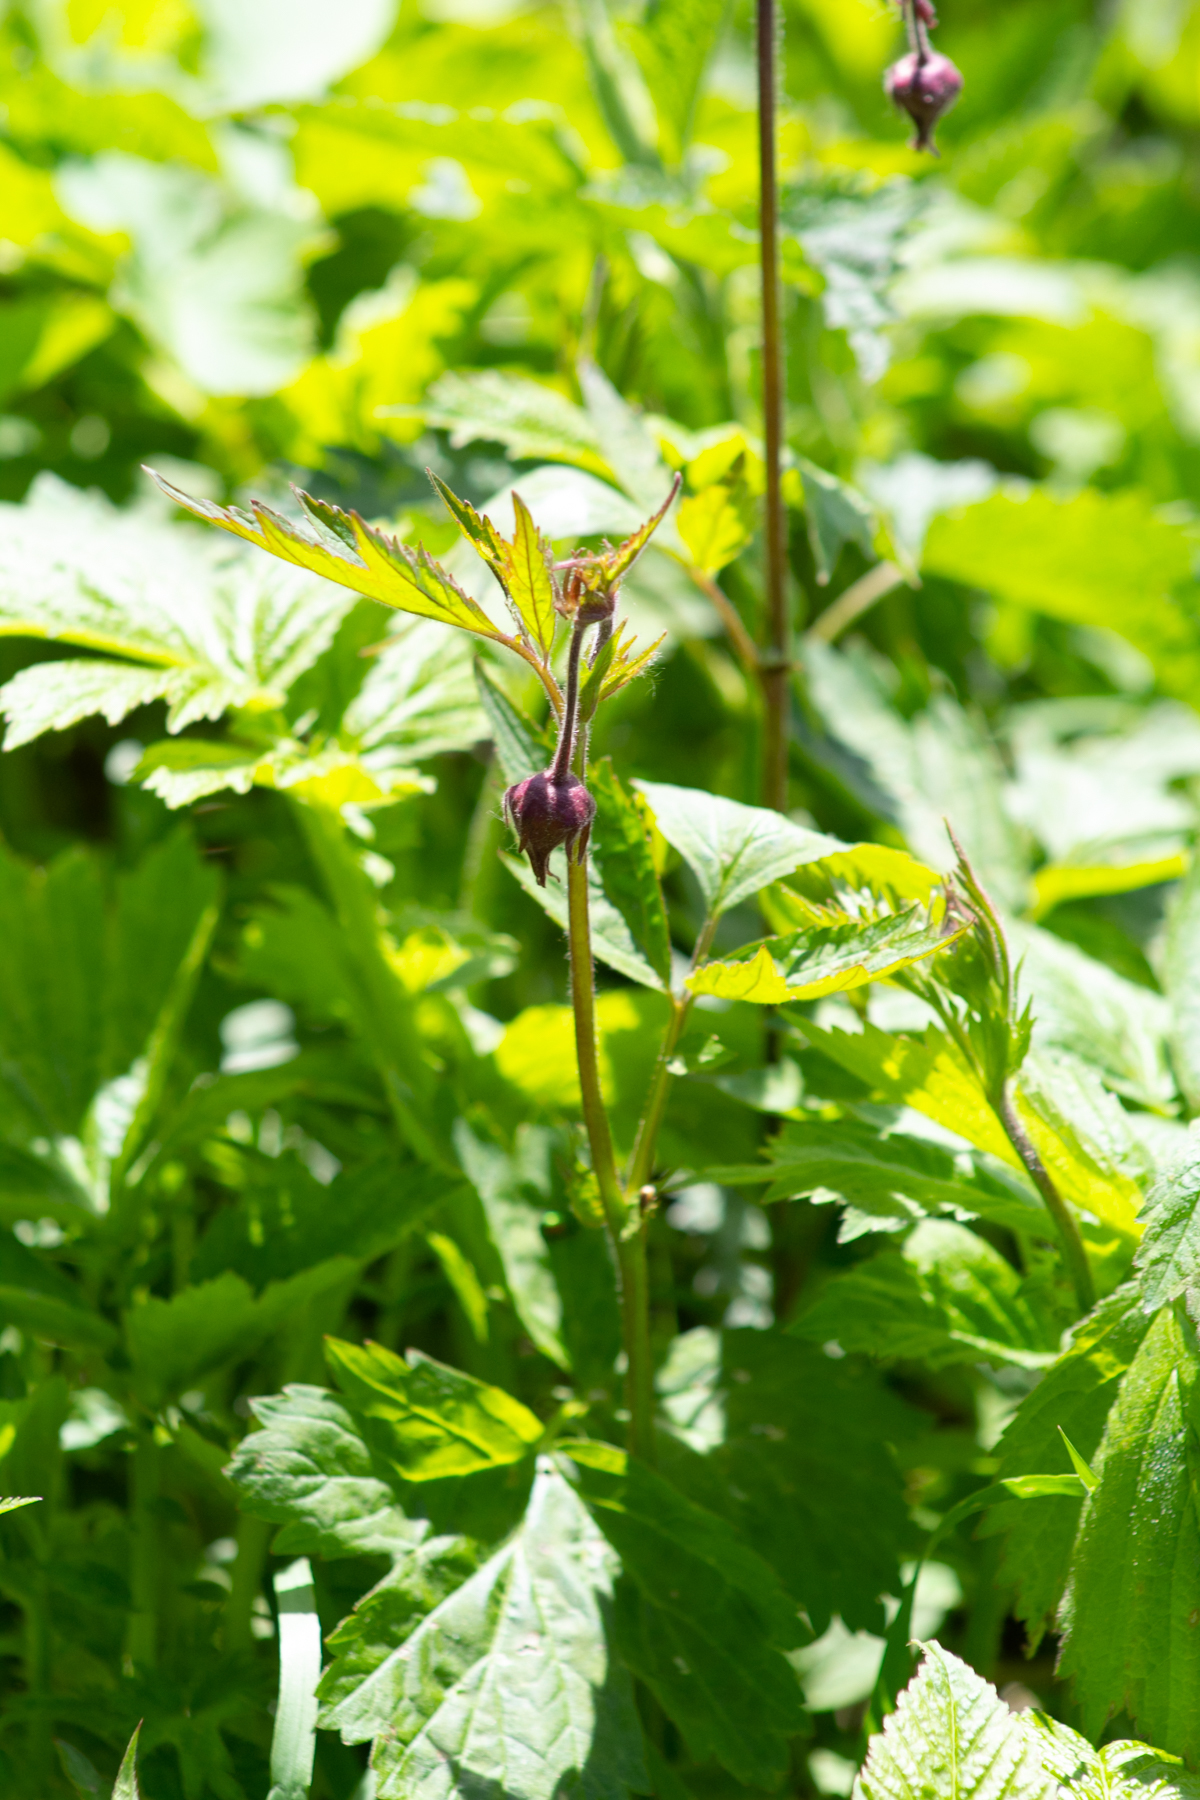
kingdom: Plantae
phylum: Tracheophyta
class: Magnoliopsida
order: Rosales
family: Rosaceae
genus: Geum
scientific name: Geum rivale
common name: Water avens
